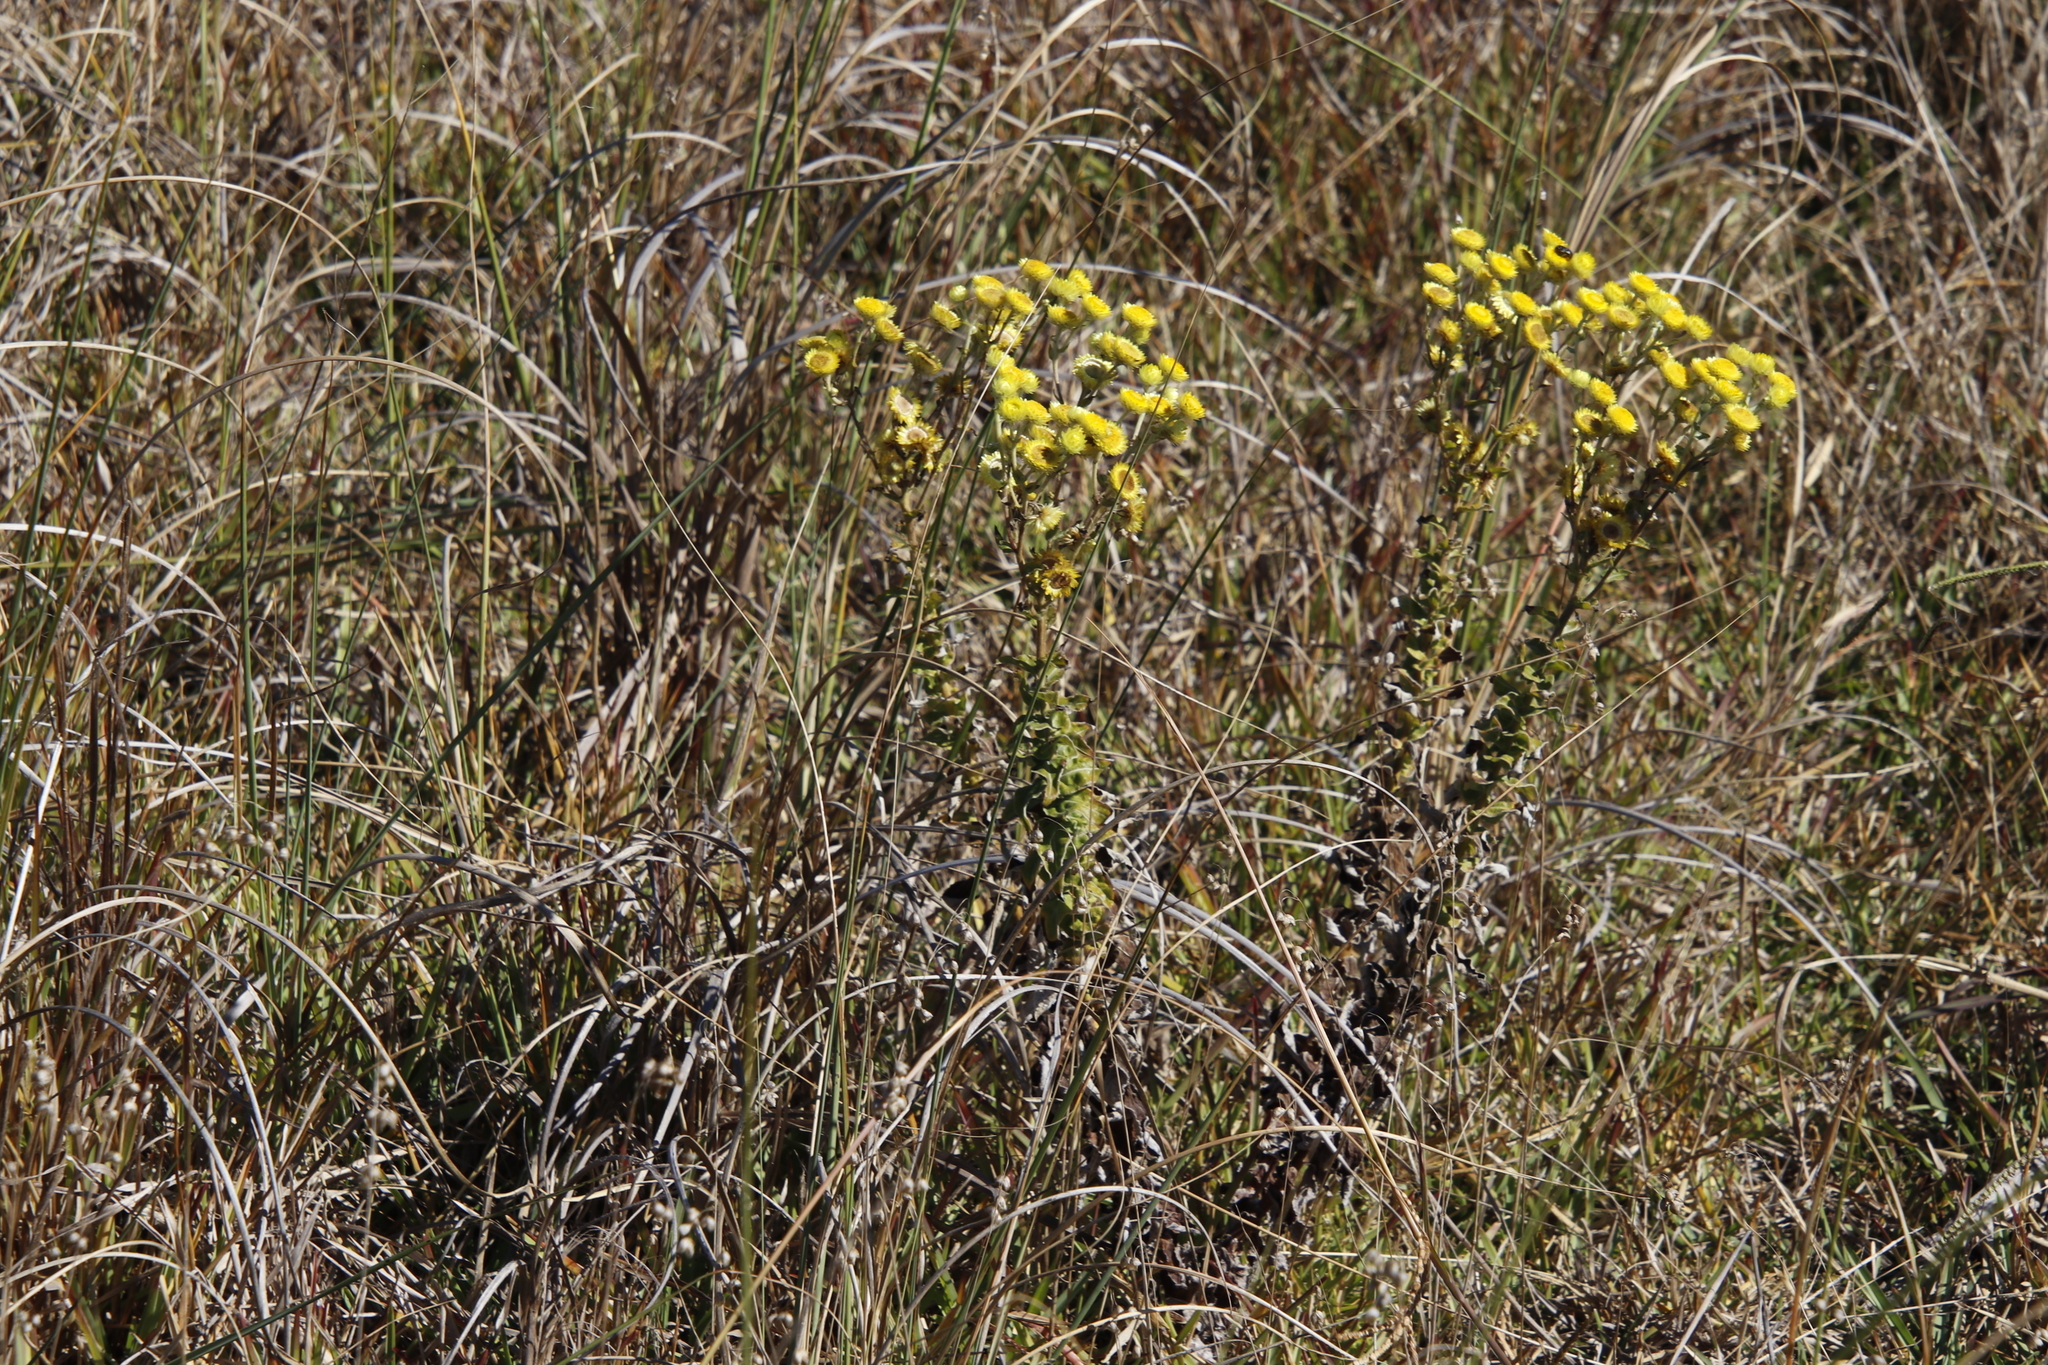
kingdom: Plantae
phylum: Tracheophyta
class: Magnoliopsida
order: Asterales
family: Asteraceae
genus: Helichrysum
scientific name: Helichrysum foetidum
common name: Stinking everlasting
